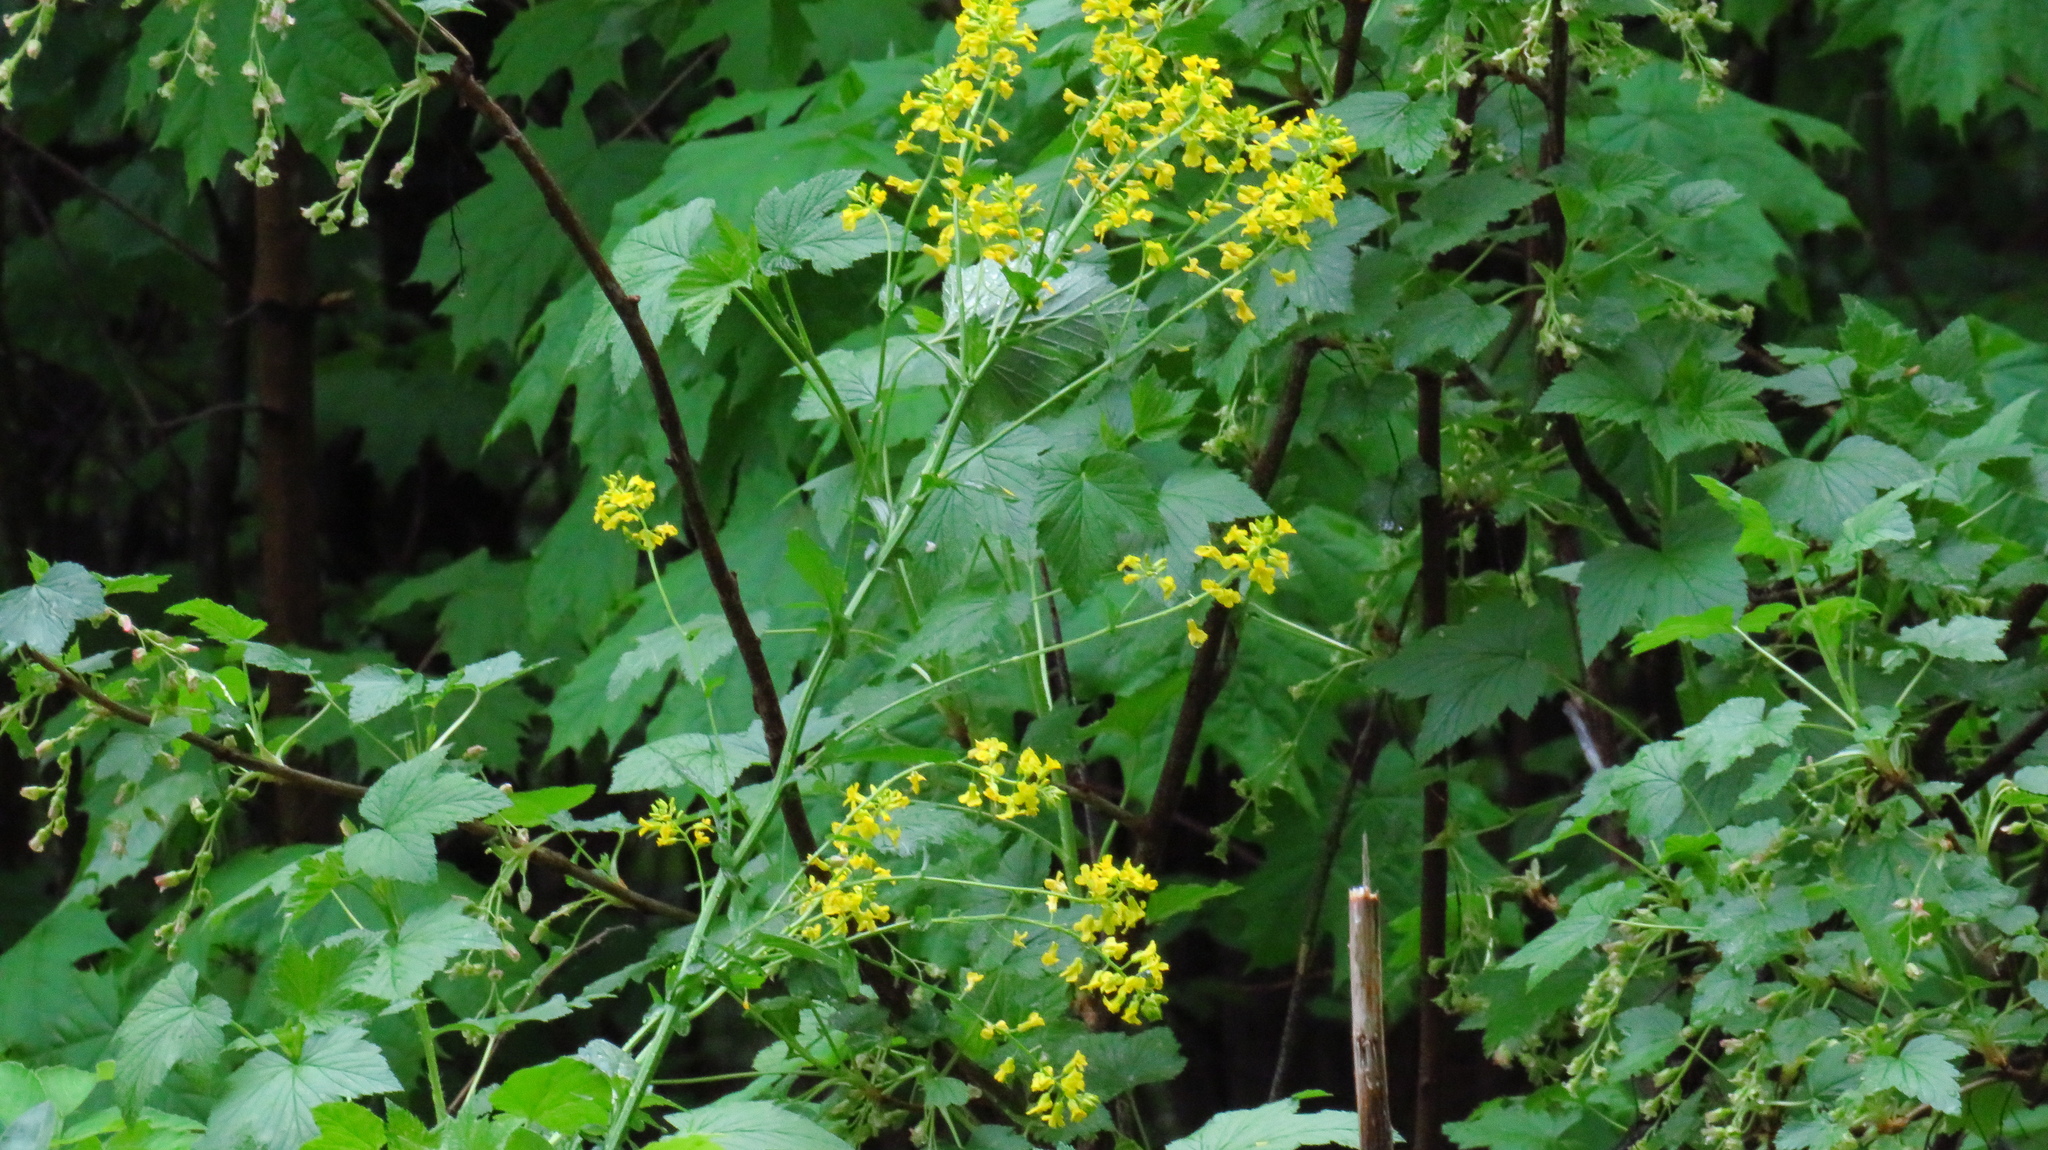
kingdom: Plantae
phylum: Tracheophyta
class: Magnoliopsida
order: Brassicales
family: Brassicaceae
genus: Barbarea
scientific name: Barbarea vulgaris
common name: Cressy-greens
